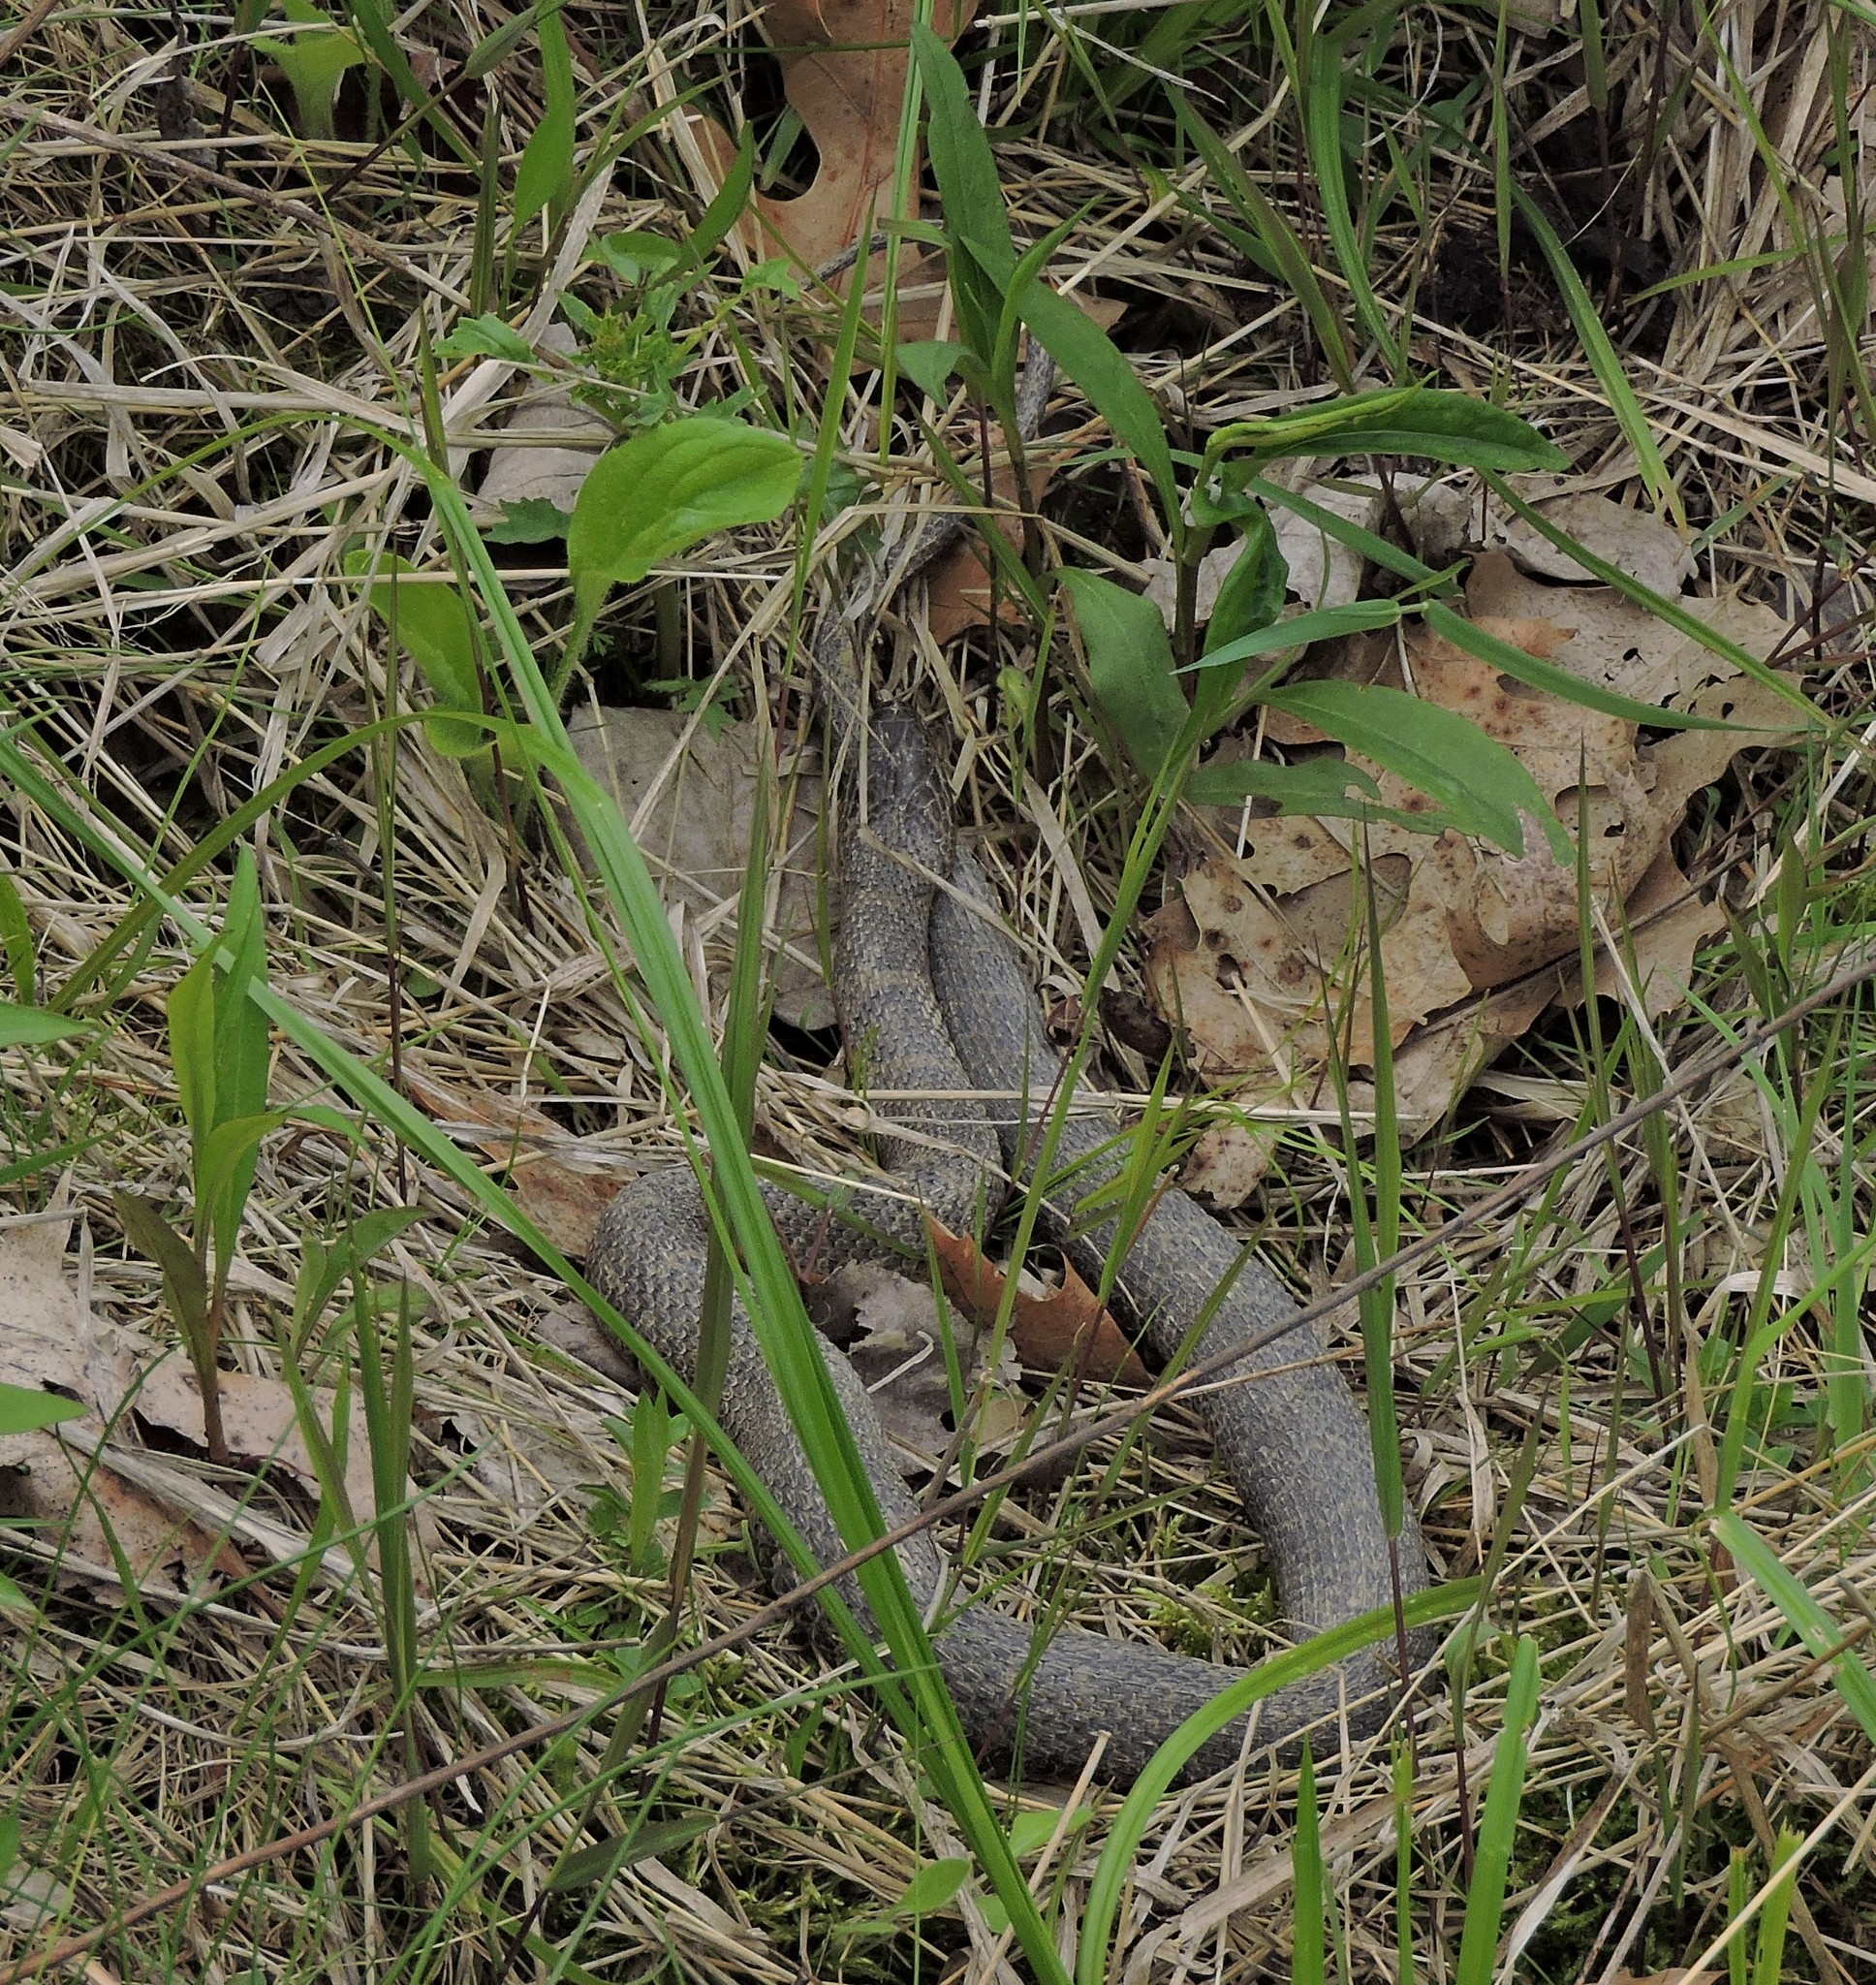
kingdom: Animalia
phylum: Chordata
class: Squamata
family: Colubridae
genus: Nerodia
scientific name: Nerodia sipedon
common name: Northern water snake
